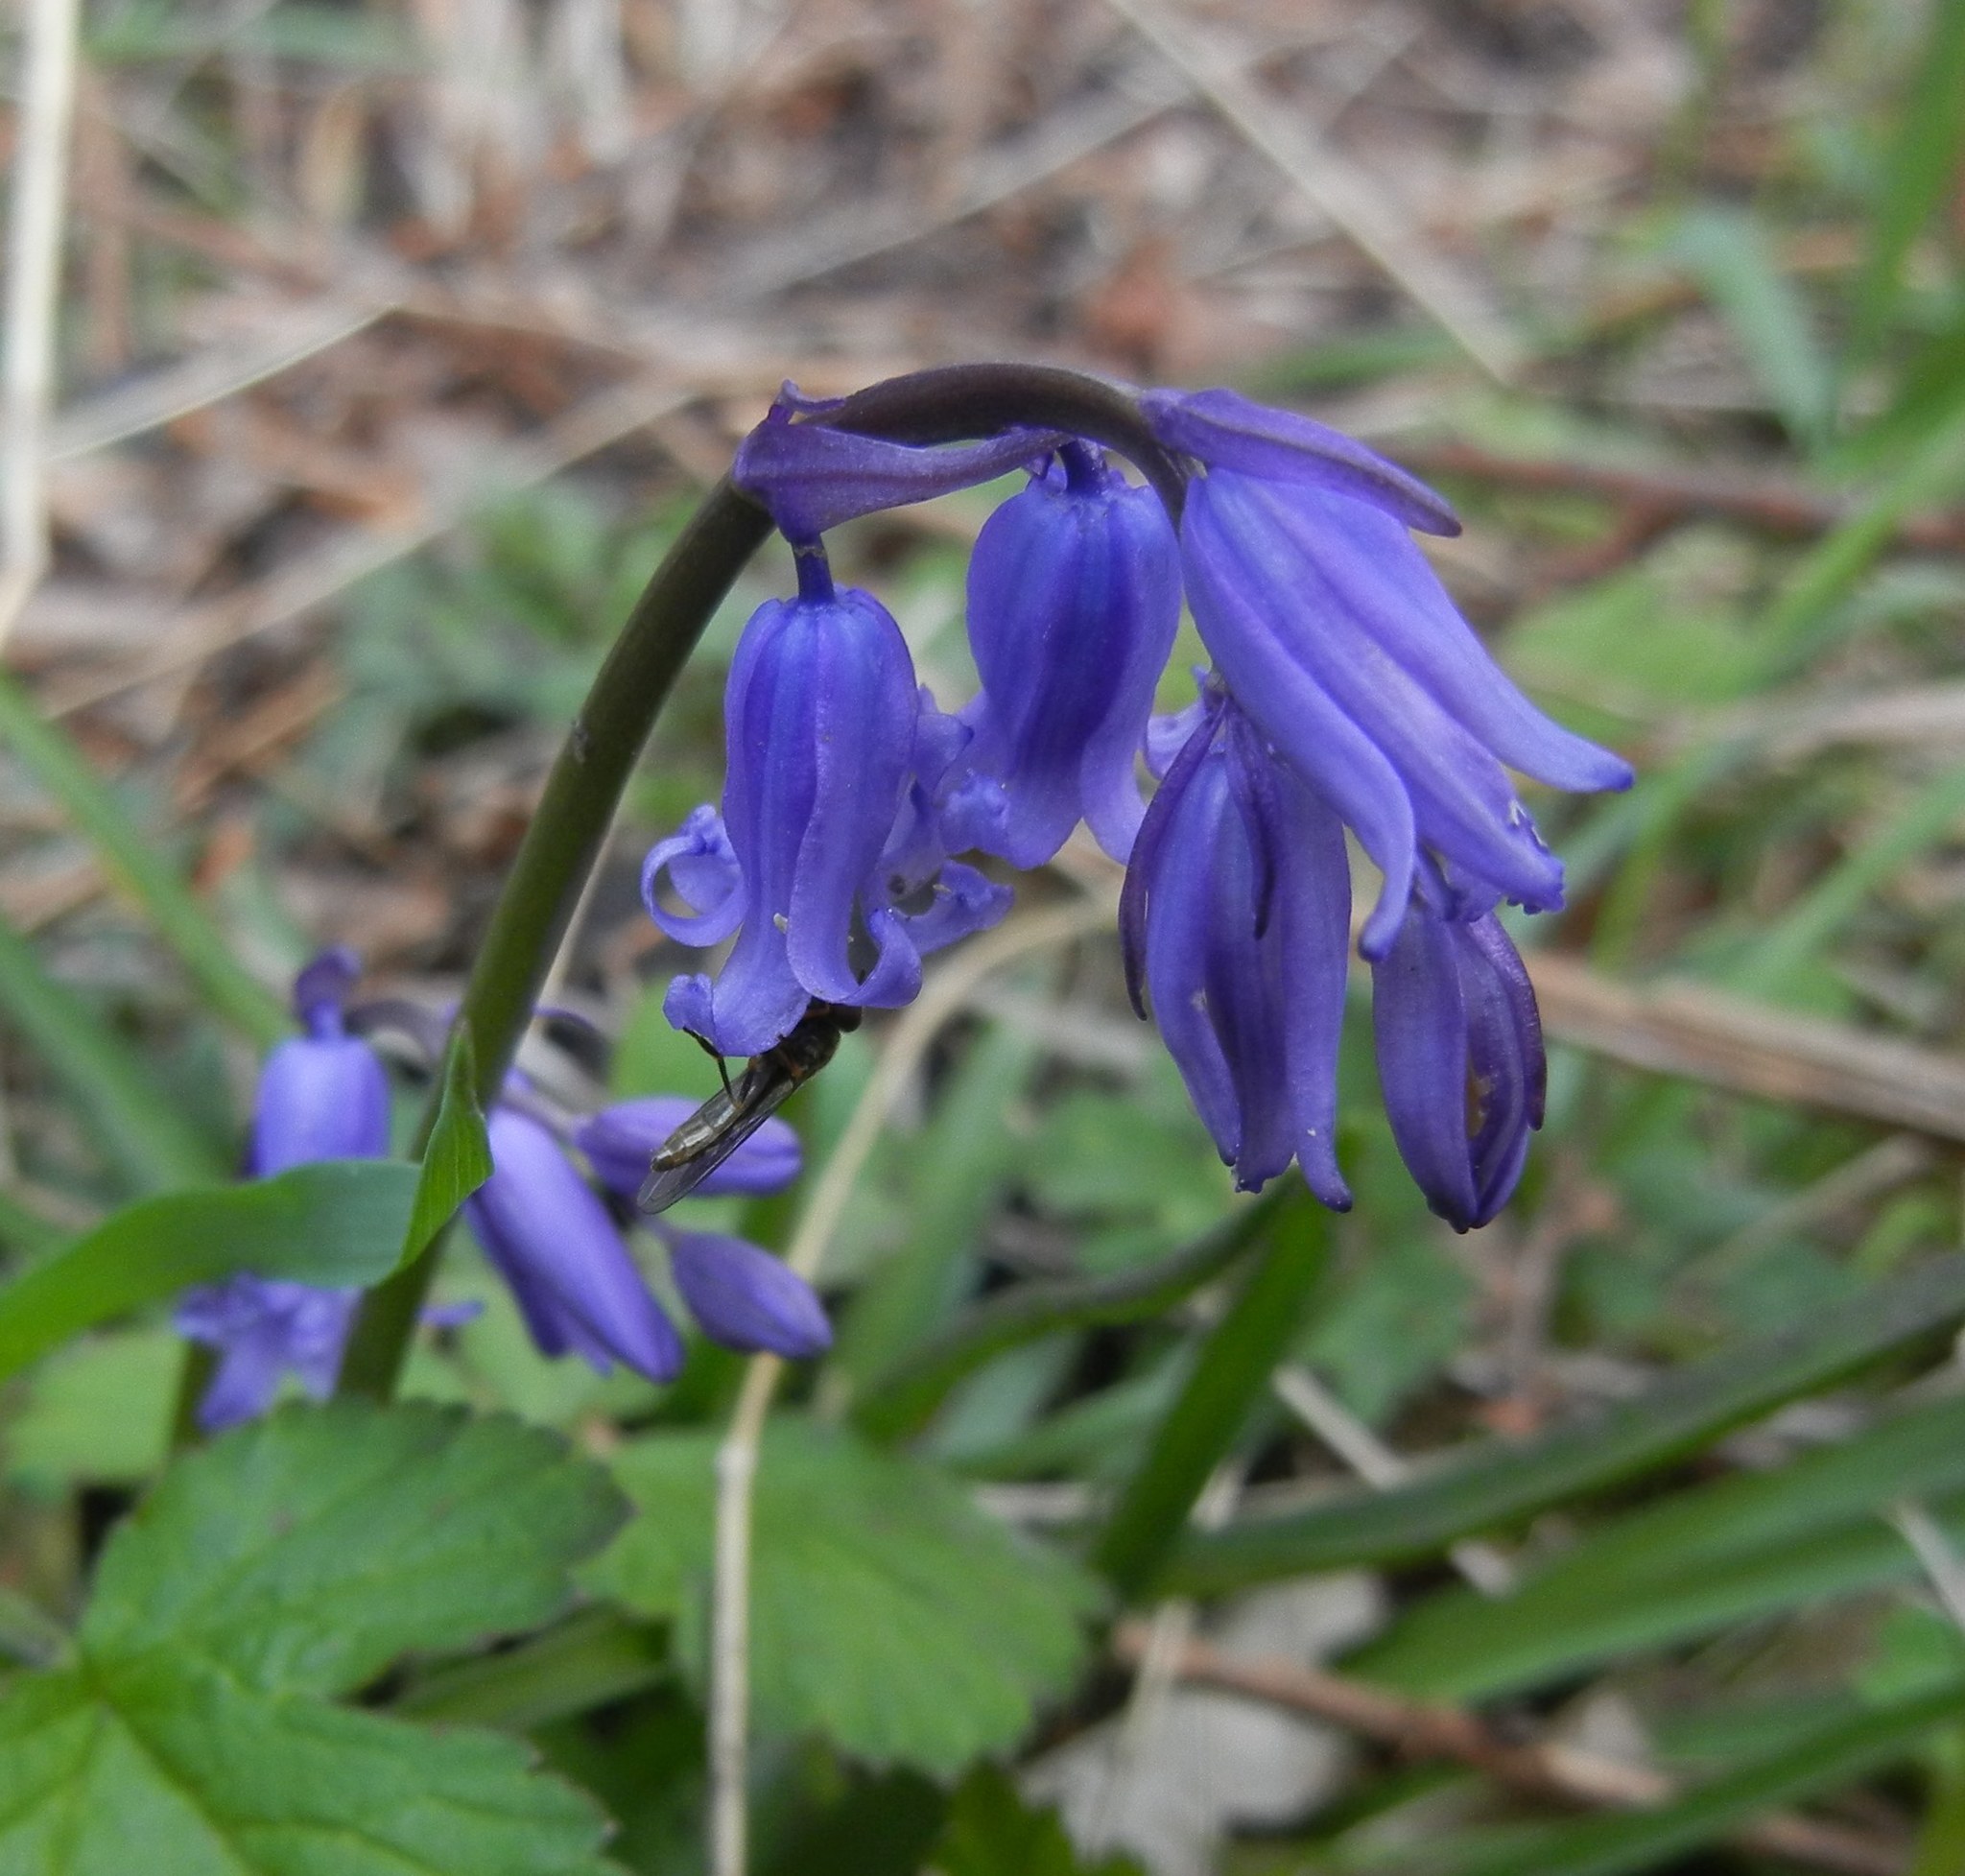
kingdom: Plantae
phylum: Tracheophyta
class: Liliopsida
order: Asparagales
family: Asparagaceae
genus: Hyacinthoides
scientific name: Hyacinthoides non-scripta
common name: Bluebell
